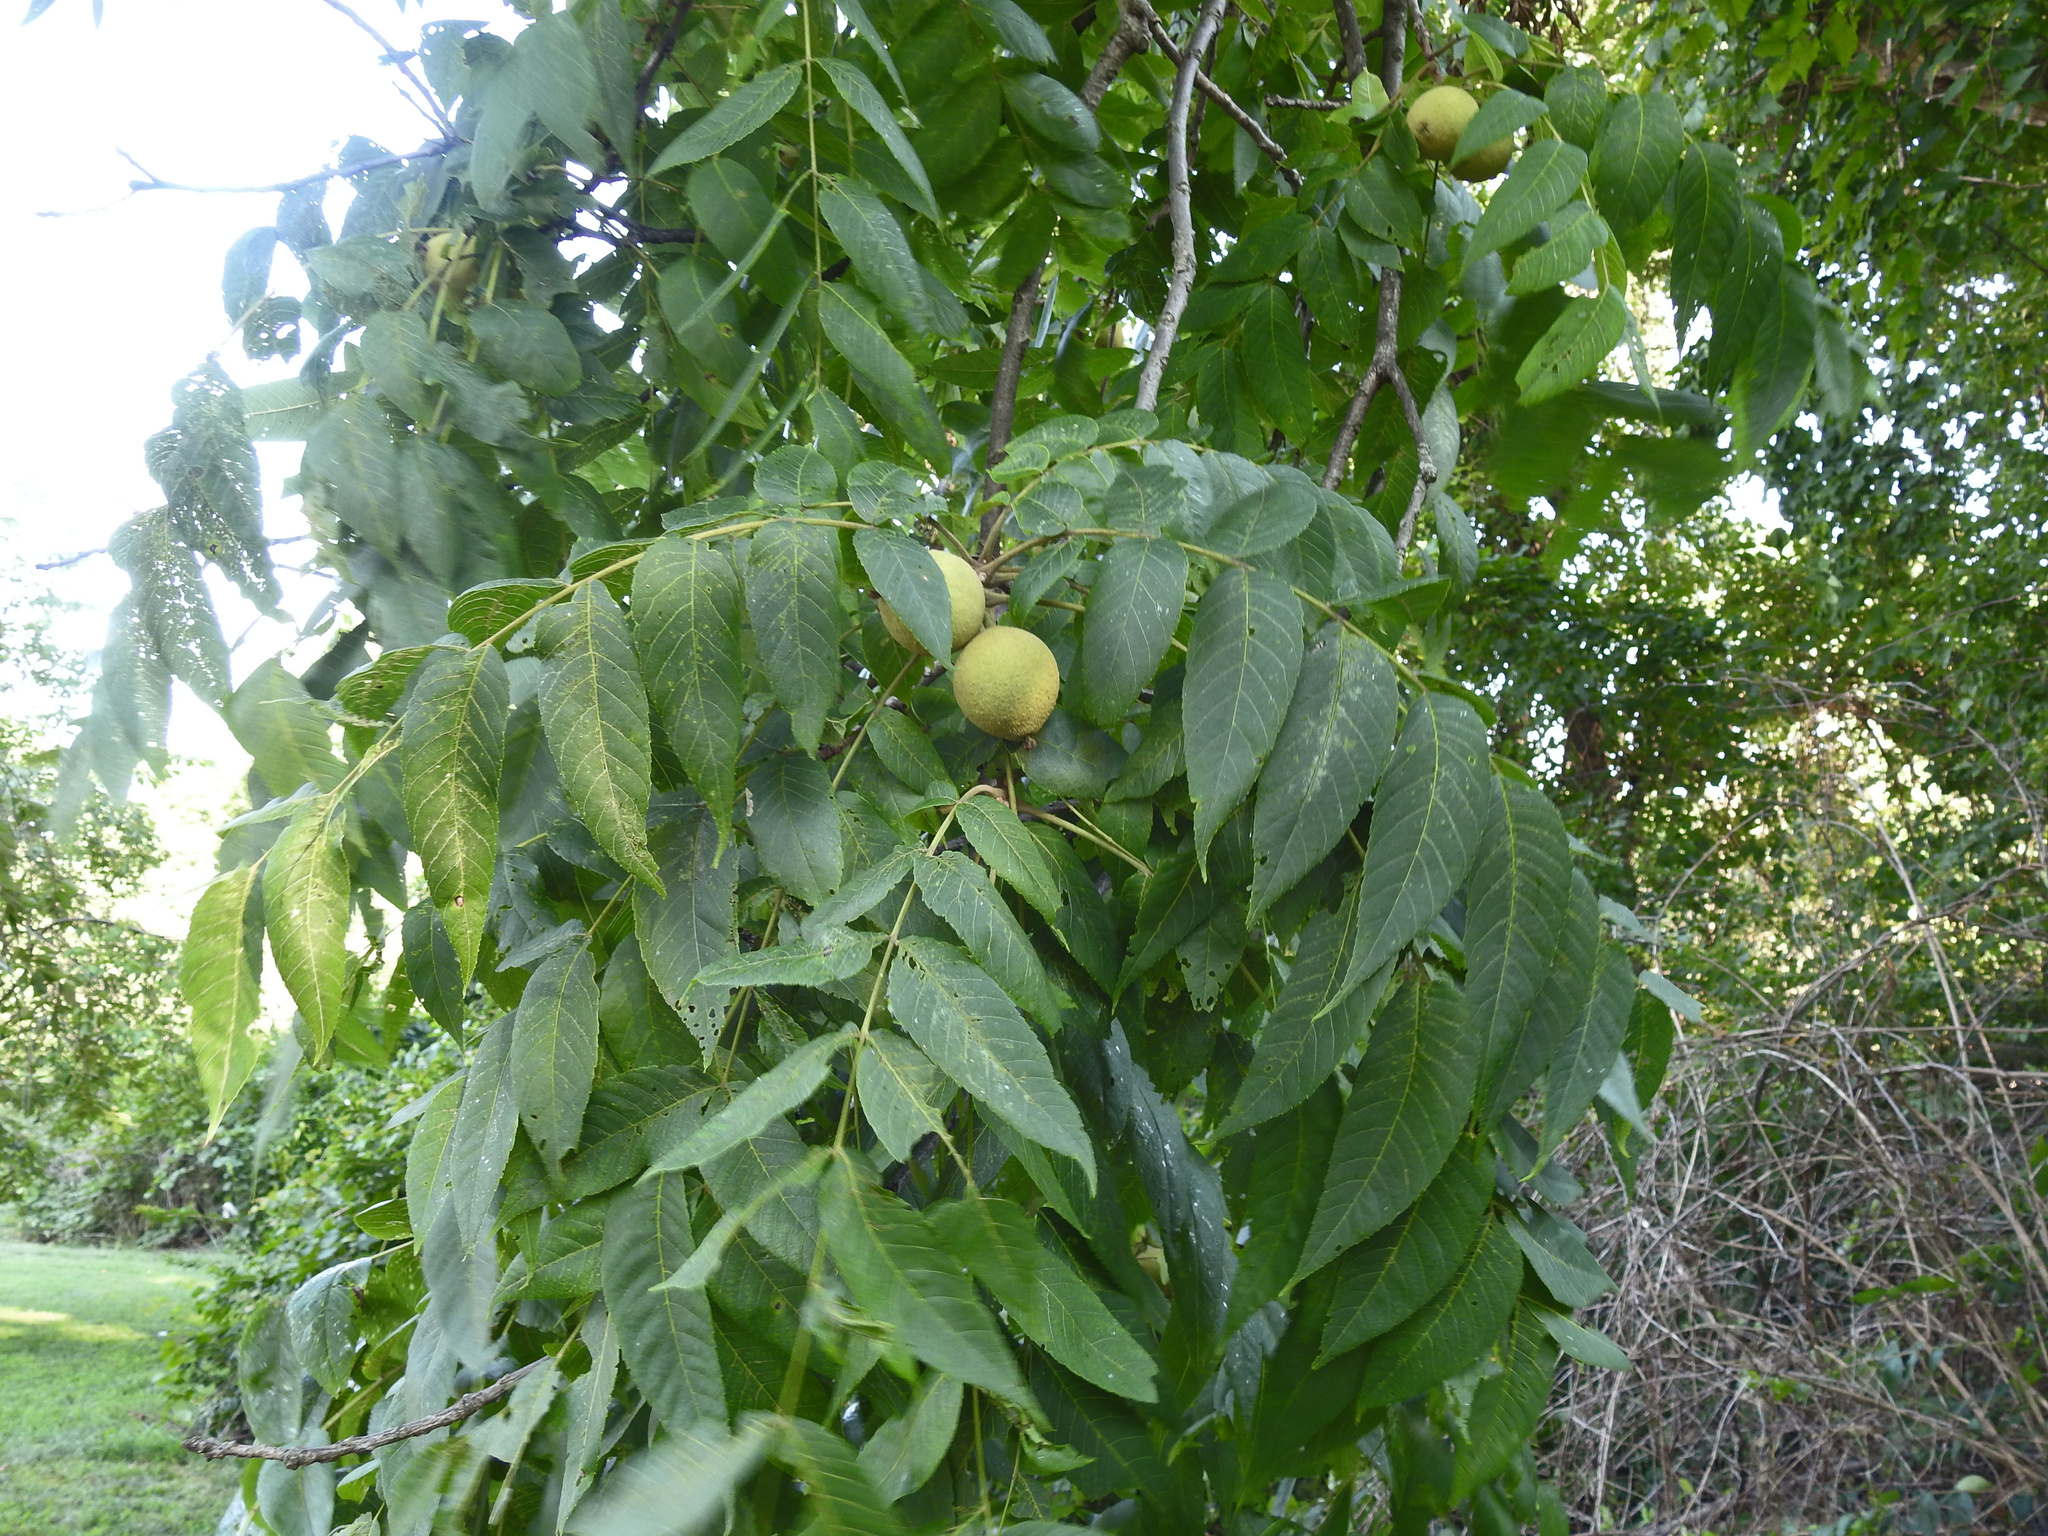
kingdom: Plantae
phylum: Tracheophyta
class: Magnoliopsida
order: Fagales
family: Juglandaceae
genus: Juglans
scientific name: Juglans nigra
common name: Black walnut
